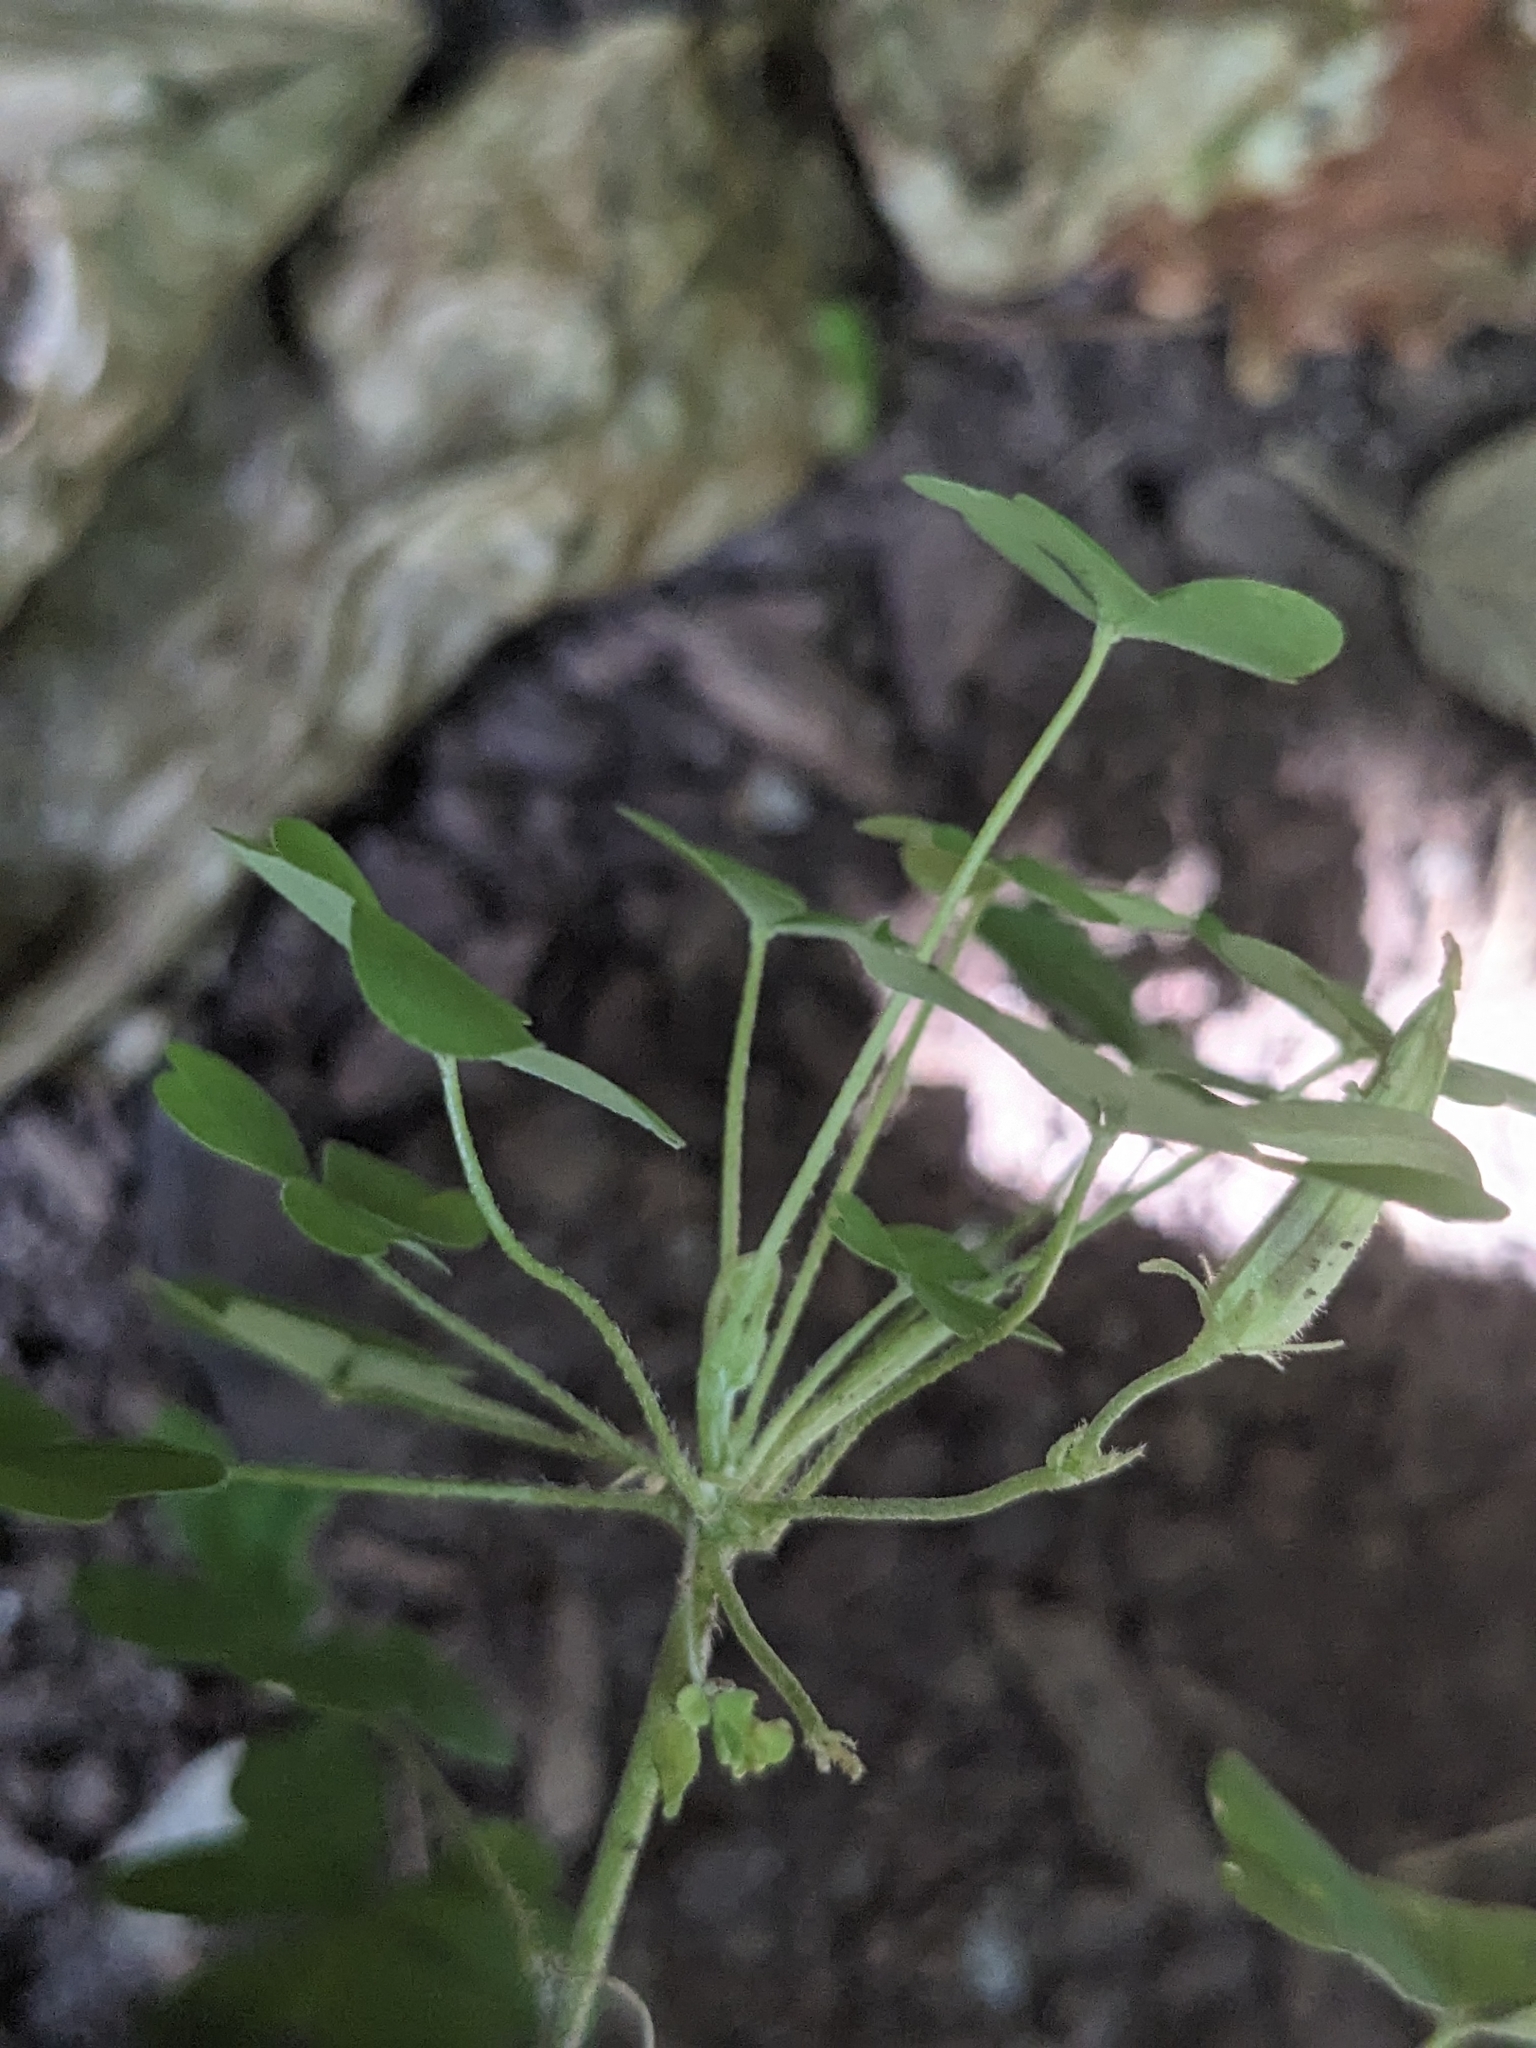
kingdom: Plantae
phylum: Tracheophyta
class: Magnoliopsida
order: Oxalidales
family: Oxalidaceae
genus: Oxalis
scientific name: Oxalis dillenii
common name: Sussex yellow-sorrel
